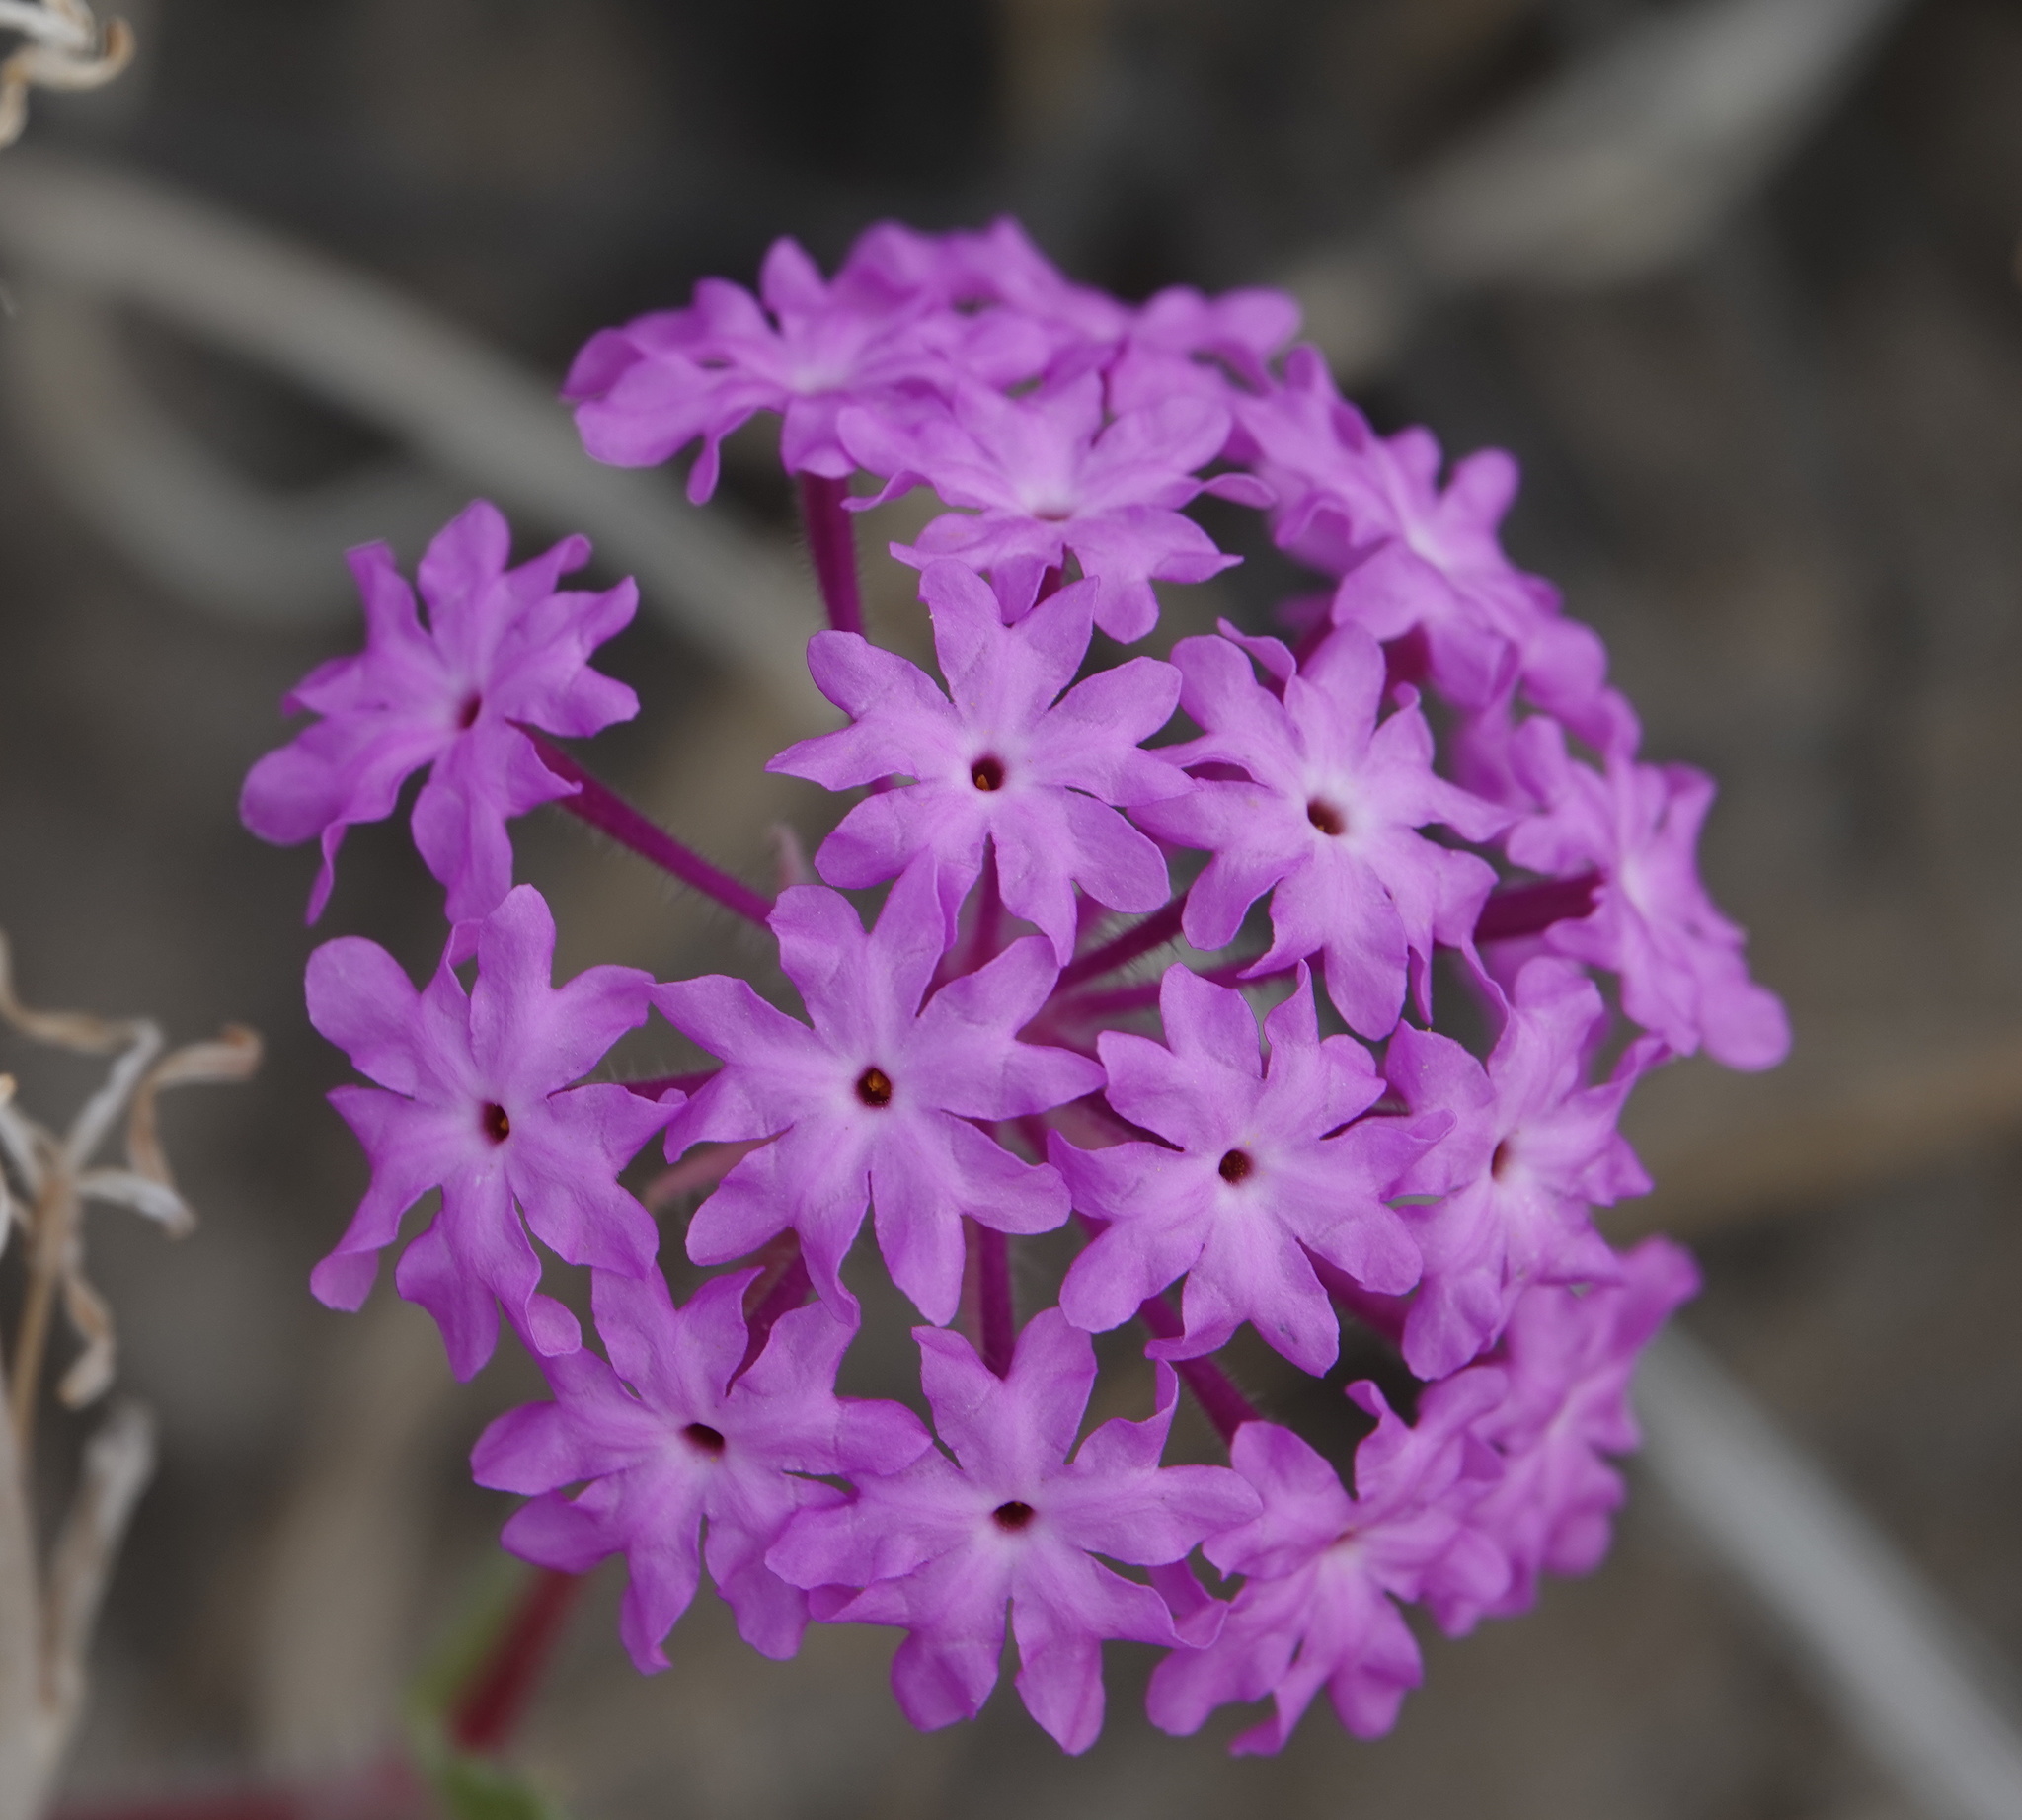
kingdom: Plantae
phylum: Tracheophyta
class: Magnoliopsida
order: Caryophyllales
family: Nyctaginaceae
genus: Abronia
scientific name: Abronia villosa
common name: Desert sand-verbena
